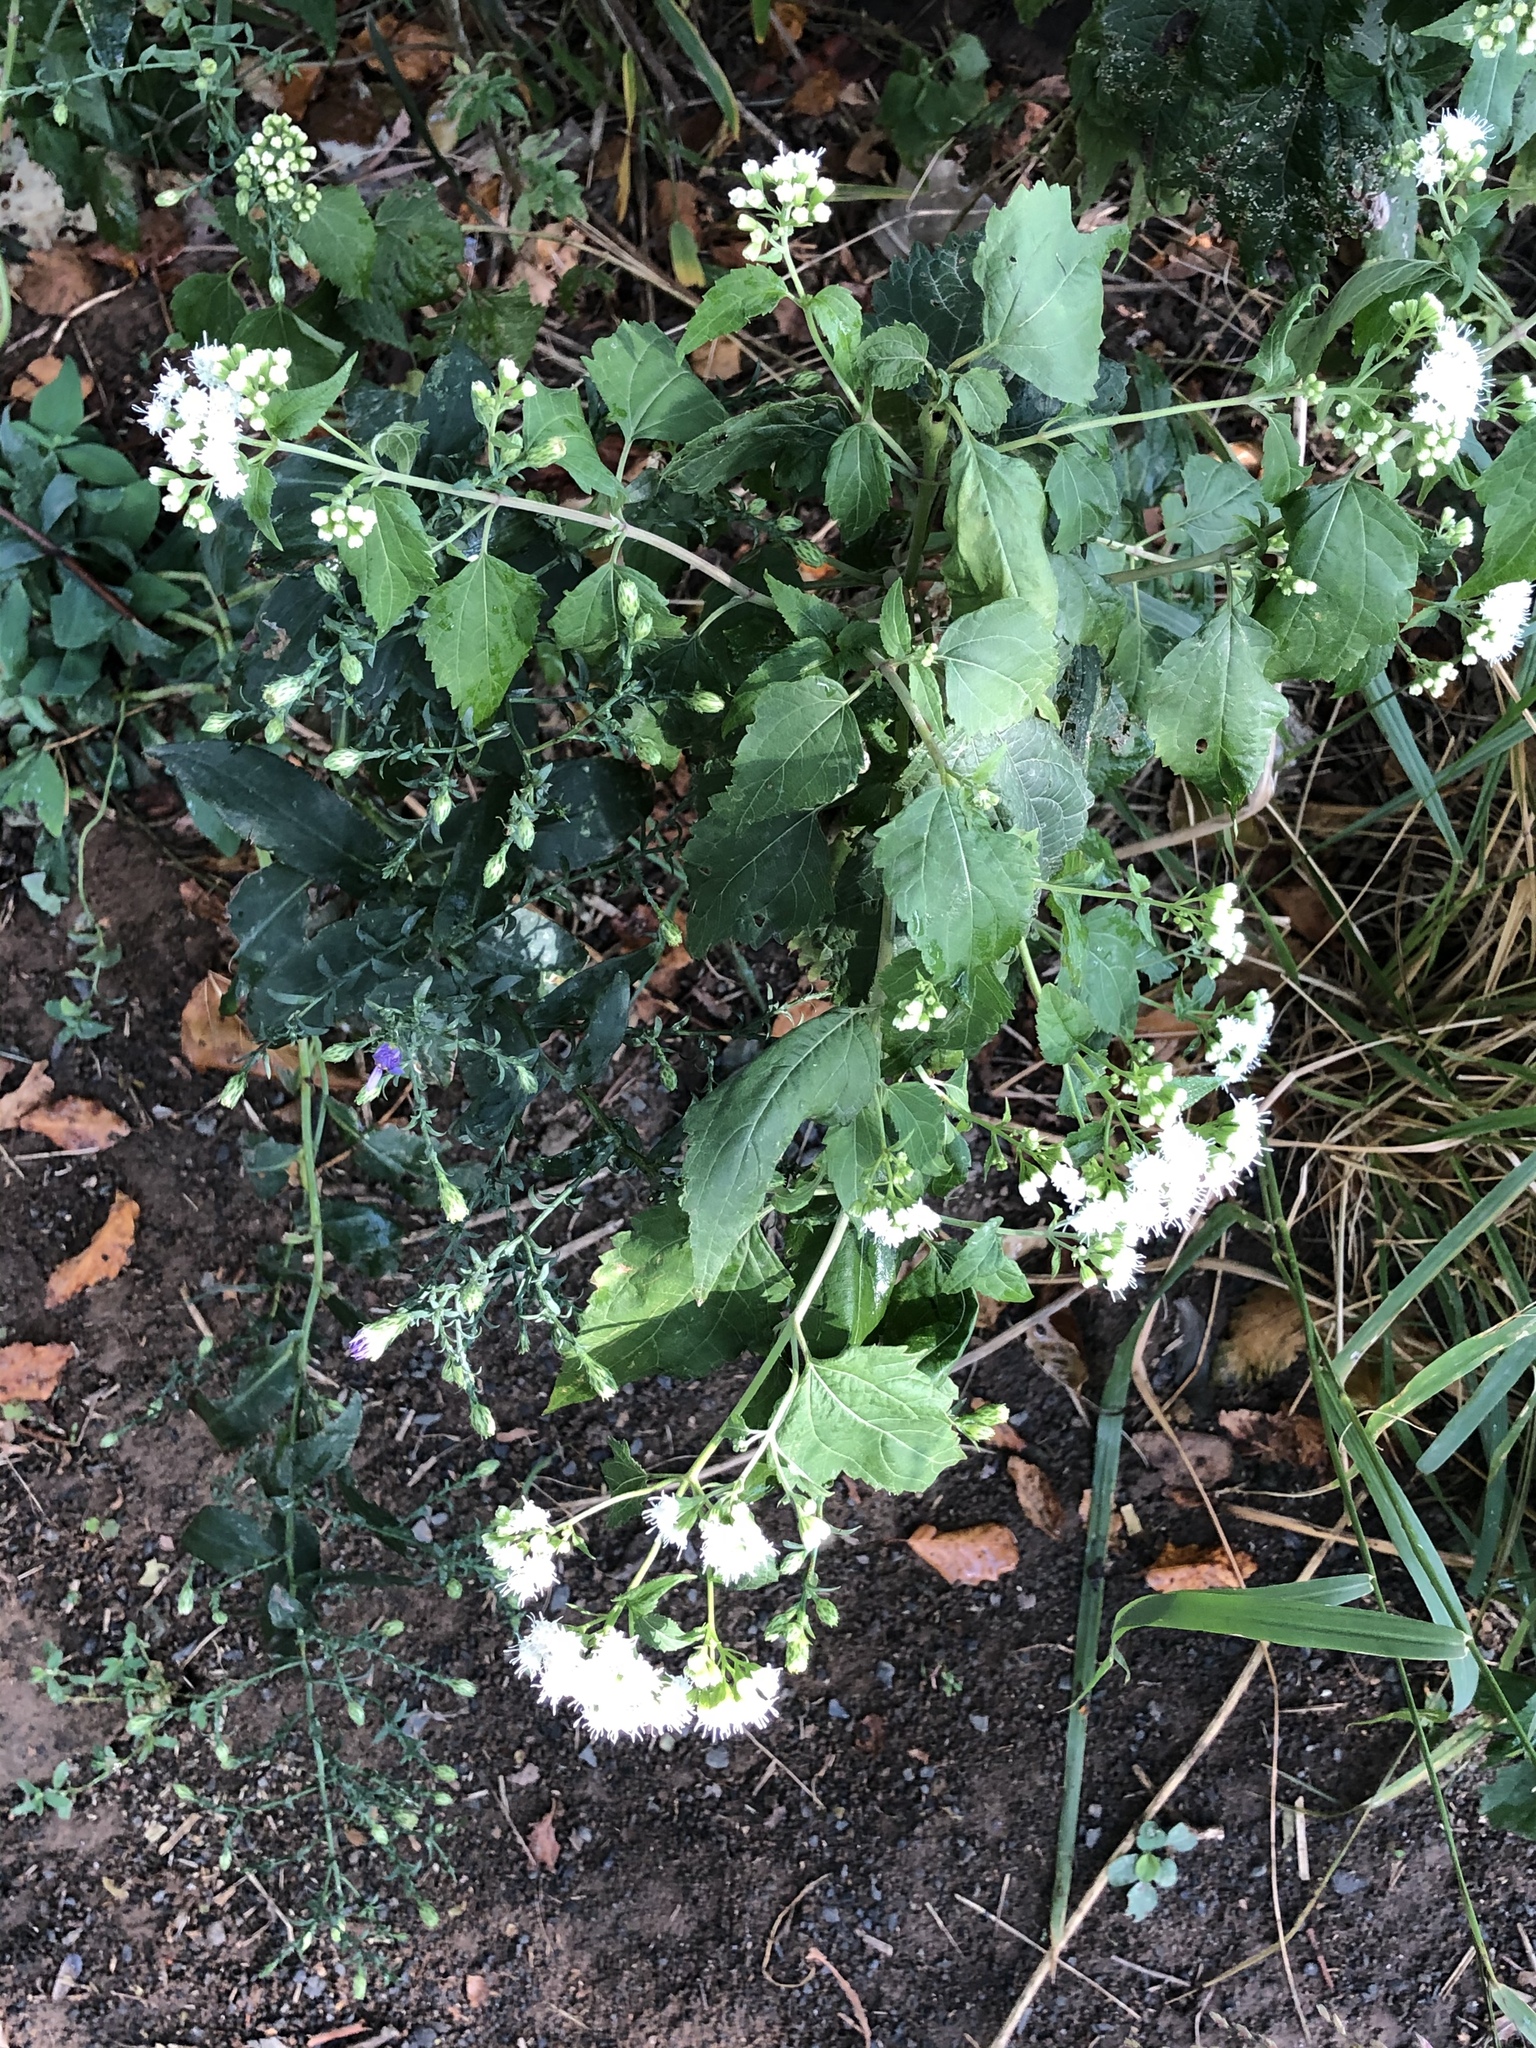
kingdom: Plantae
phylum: Tracheophyta
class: Magnoliopsida
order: Asterales
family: Asteraceae
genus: Ageratina
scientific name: Ageratina altissima
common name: White snakeroot
